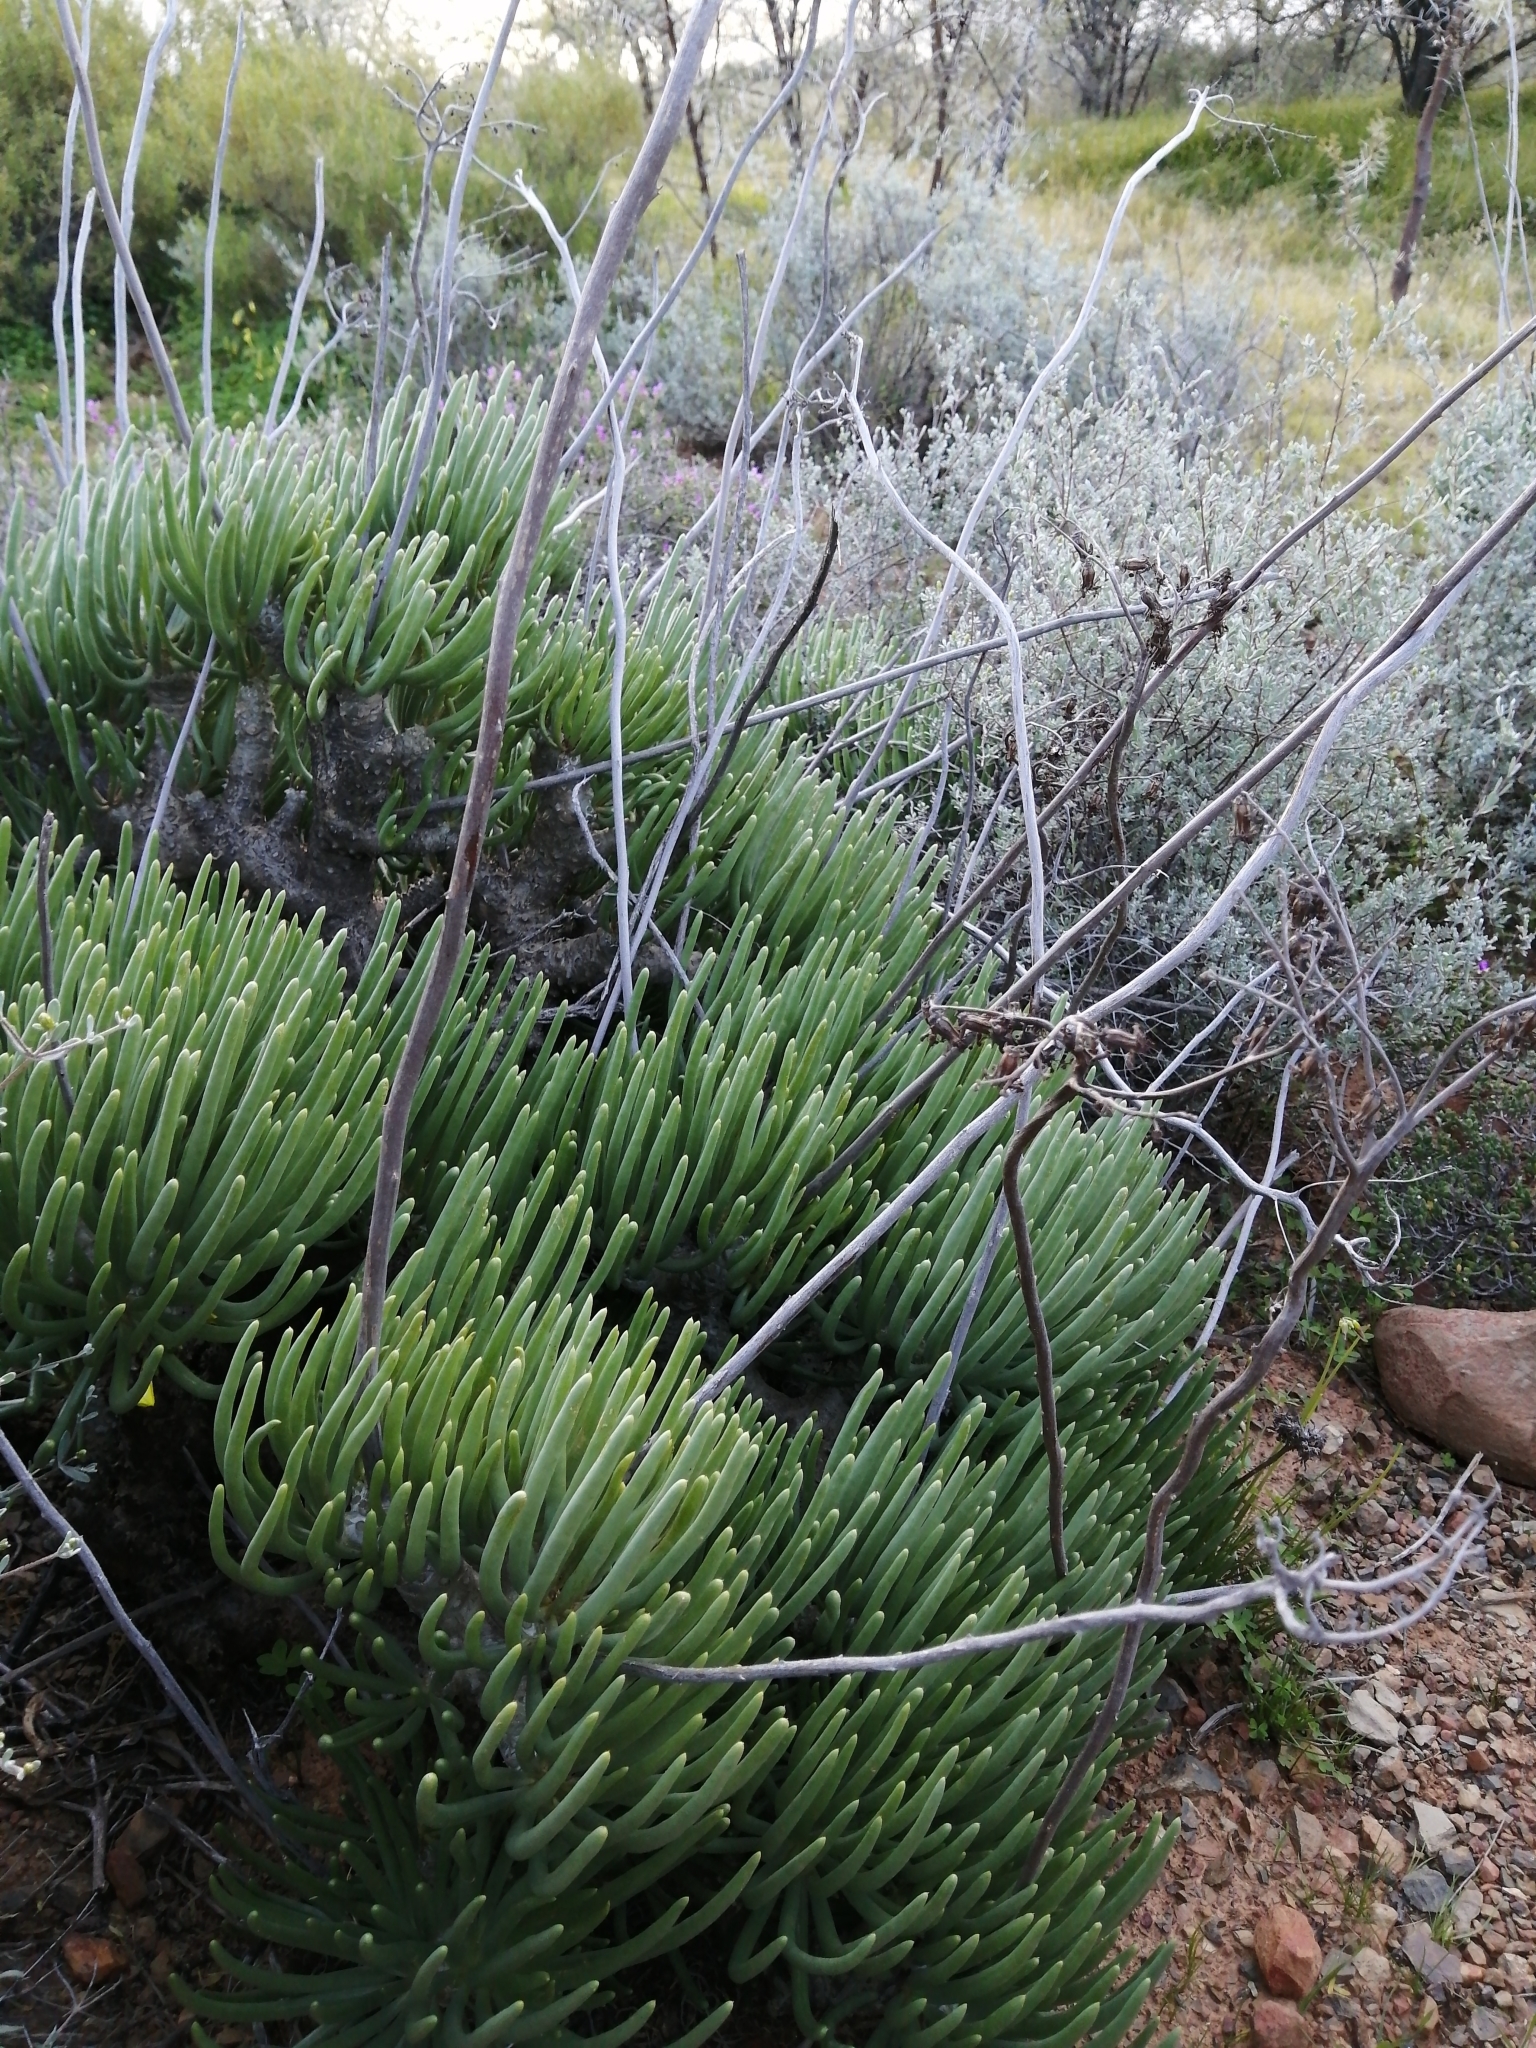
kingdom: Plantae
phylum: Tracheophyta
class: Magnoliopsida
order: Saxifragales
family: Crassulaceae
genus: Tylecodon
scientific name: Tylecodon wallichii
